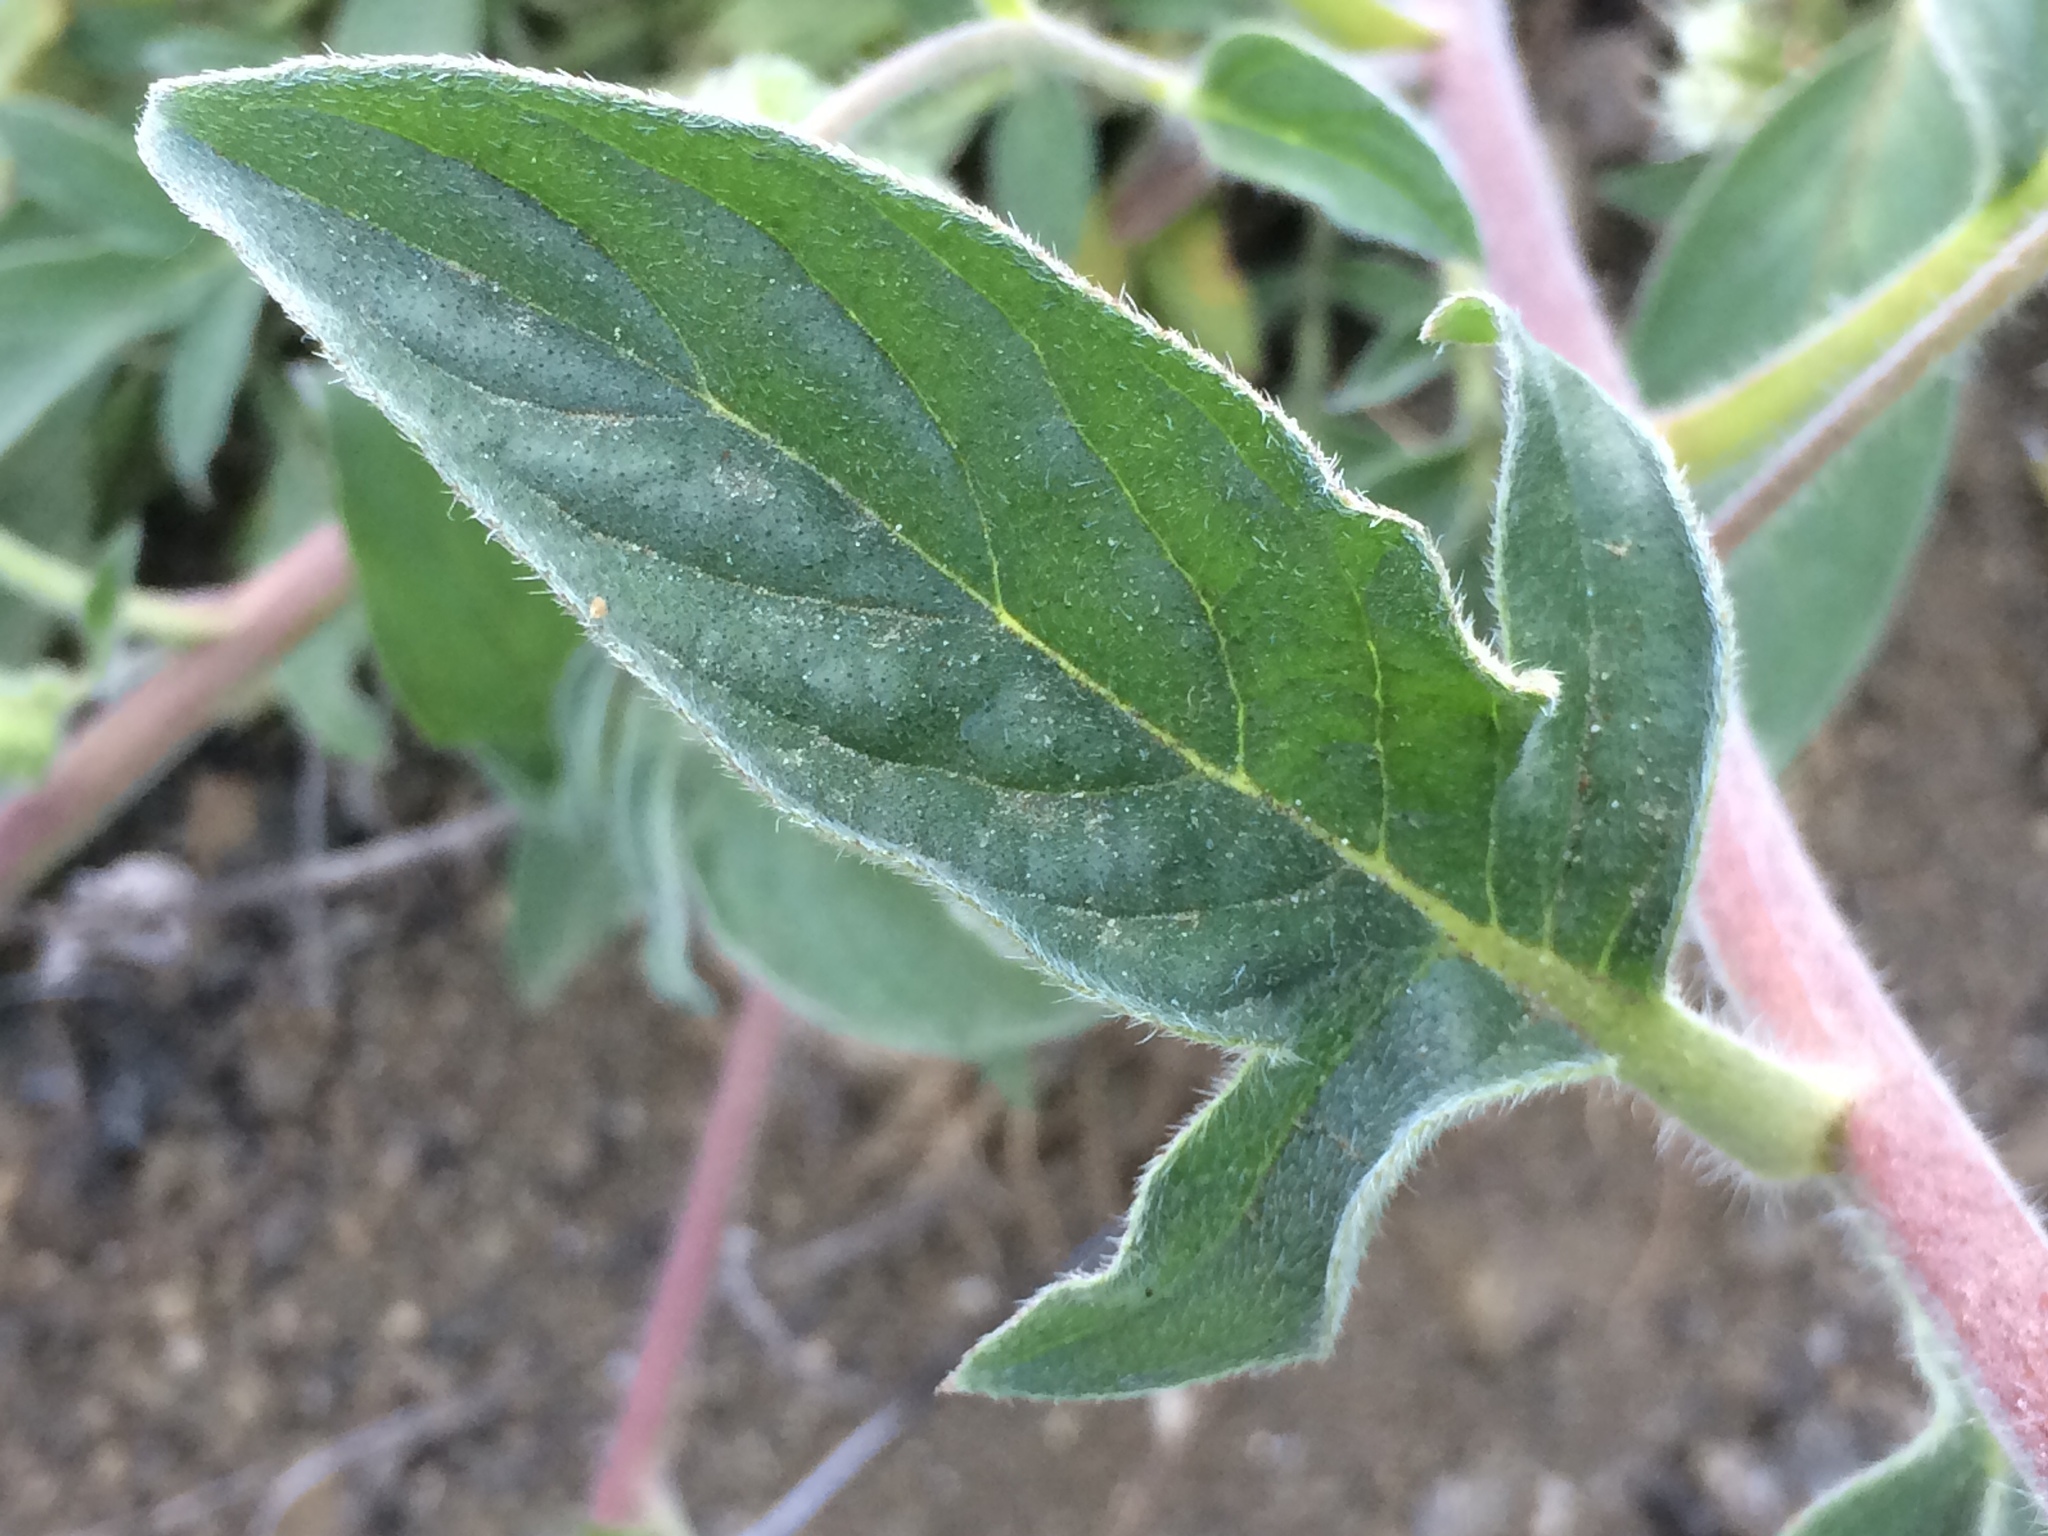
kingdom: Plantae
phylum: Tracheophyta
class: Magnoliopsida
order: Boraginales
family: Hydrophyllaceae
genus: Phacelia
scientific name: Phacelia hastata
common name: Silver-leaved phacelia
